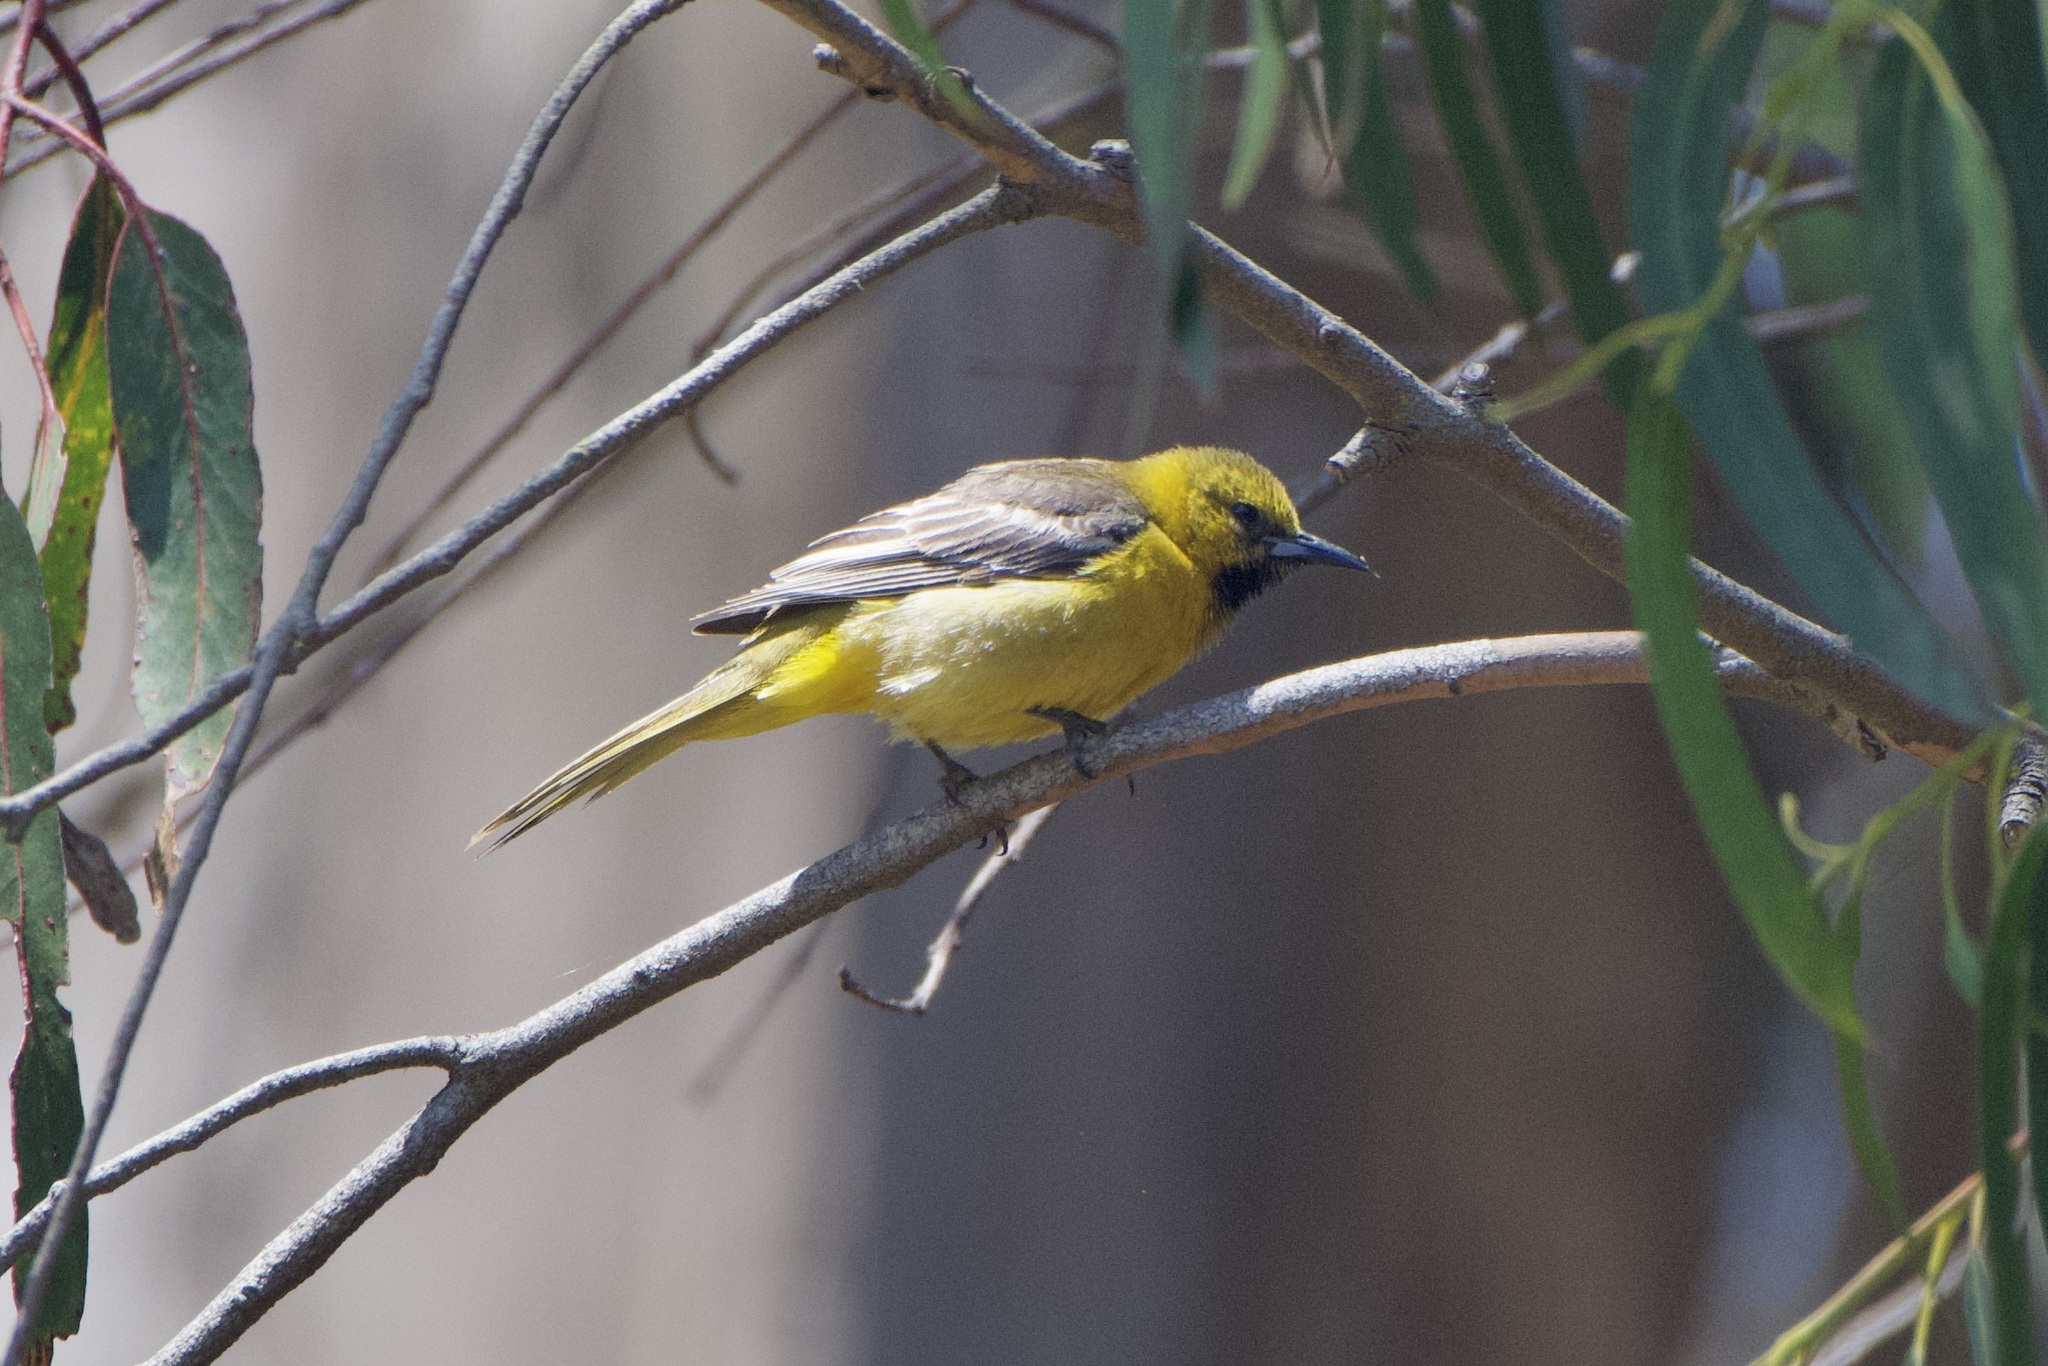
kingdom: Animalia
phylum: Chordata
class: Aves
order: Passeriformes
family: Icteridae
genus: Icterus
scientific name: Icterus cucullatus
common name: Hooded oriole
